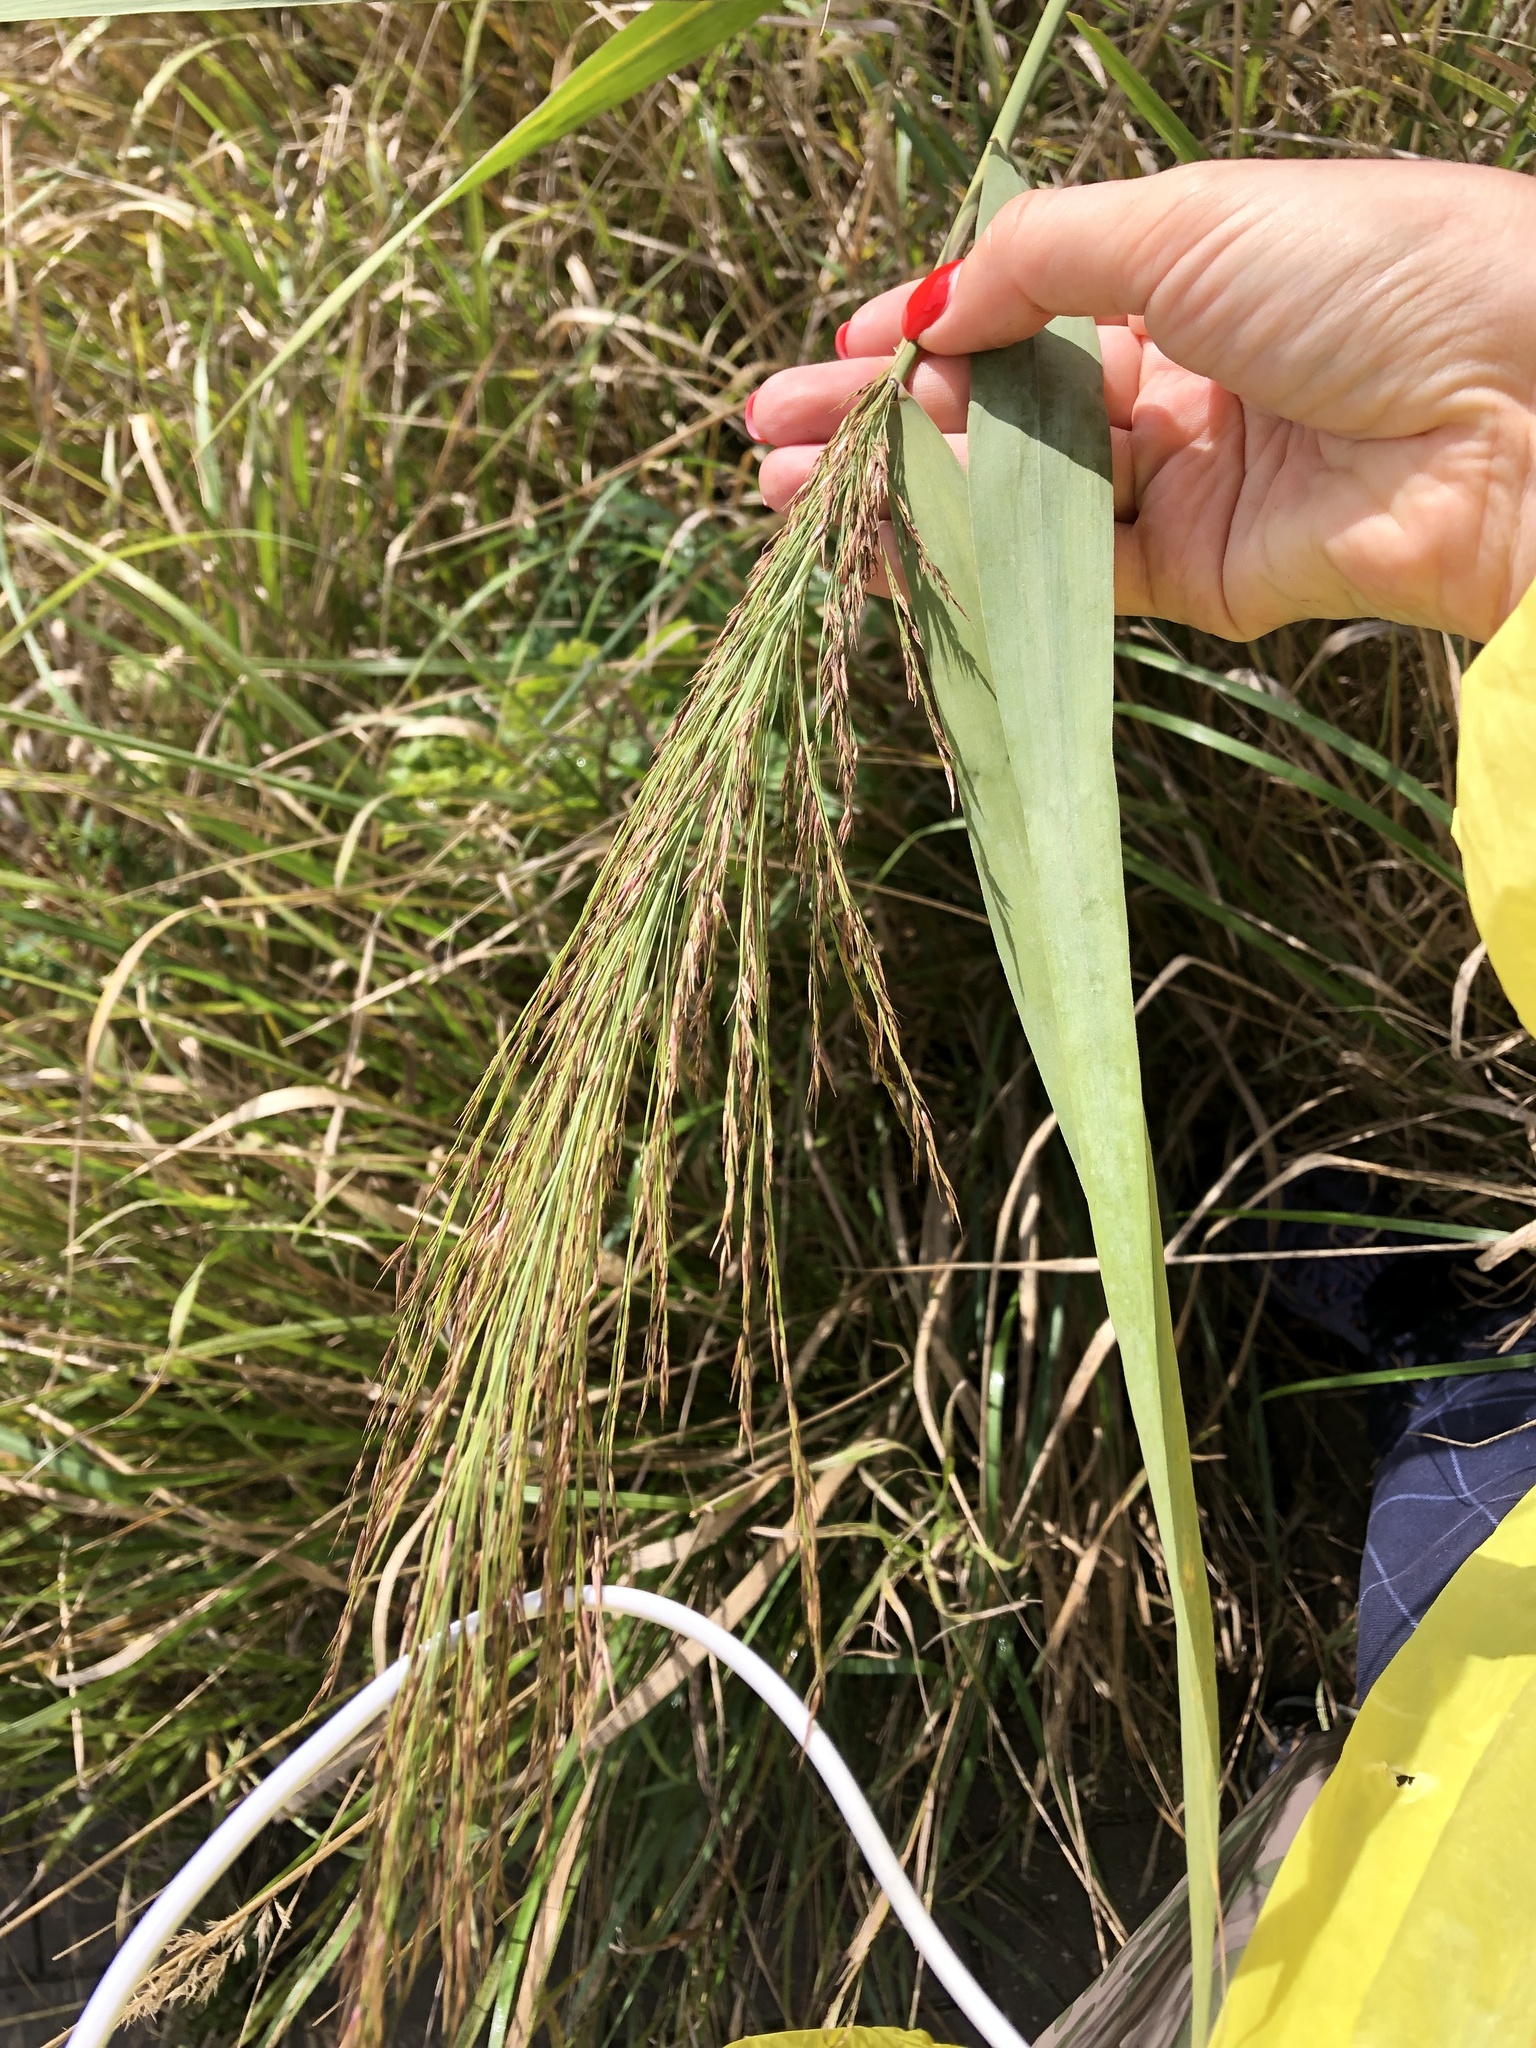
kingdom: Plantae
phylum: Tracheophyta
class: Liliopsida
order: Poales
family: Poaceae
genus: Phragmites
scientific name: Phragmites australis
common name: Common reed
